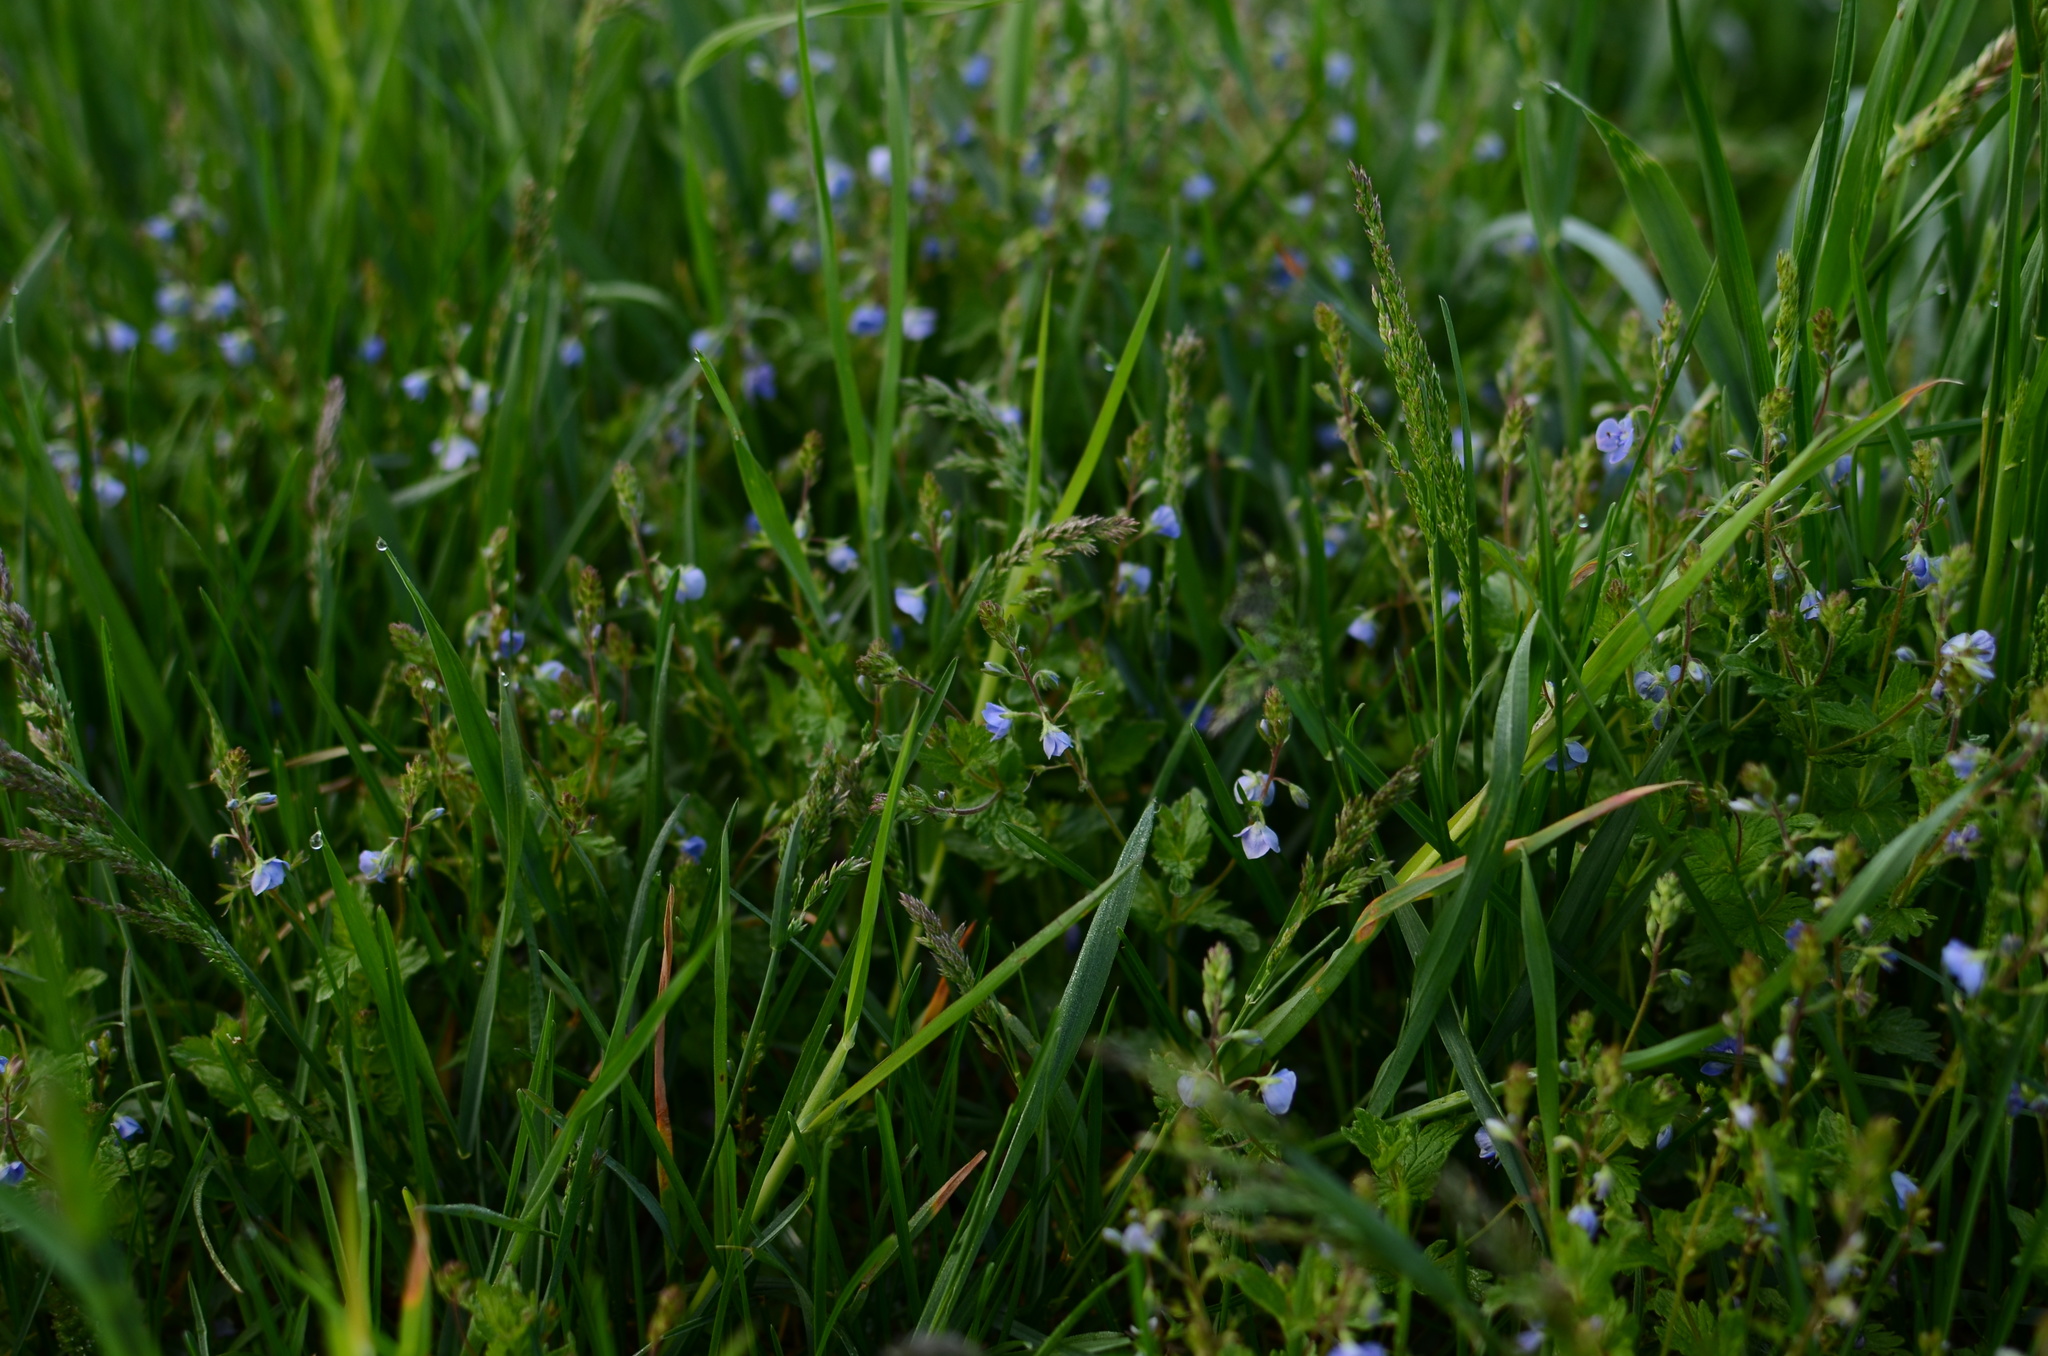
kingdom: Plantae
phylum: Tracheophyta
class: Magnoliopsida
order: Lamiales
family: Plantaginaceae
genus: Veronica
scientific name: Veronica chamaedrys
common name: Germander speedwell
